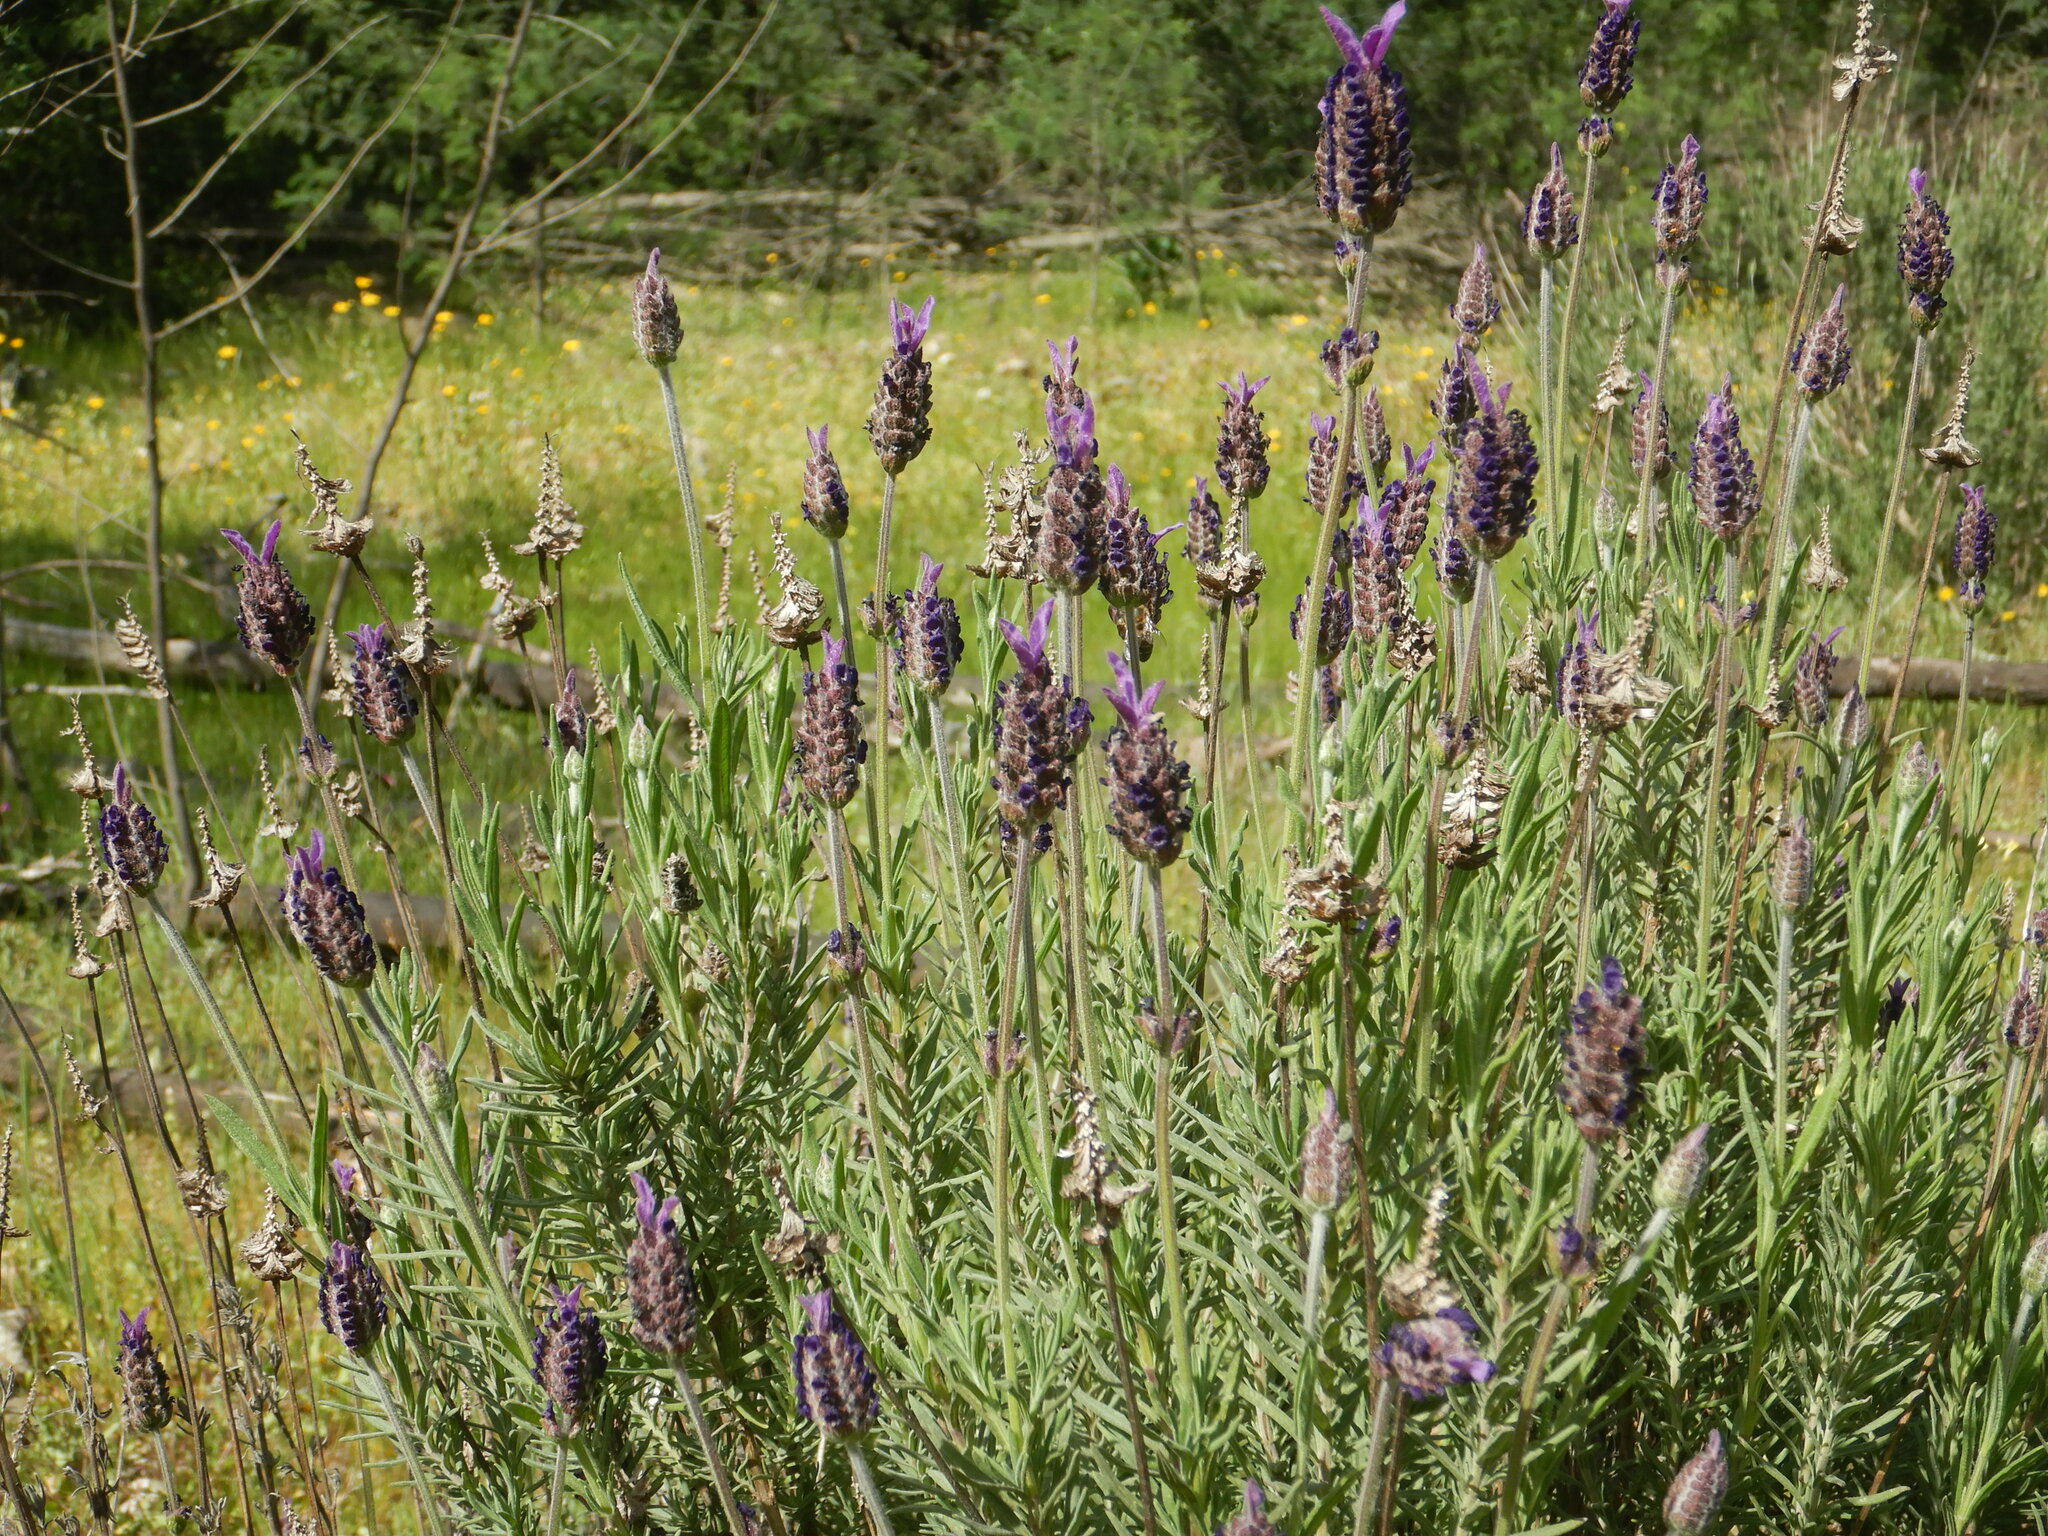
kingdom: Plantae
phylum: Tracheophyta
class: Magnoliopsida
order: Lamiales
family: Lamiaceae
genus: Lavandula
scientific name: Lavandula pedunculata
